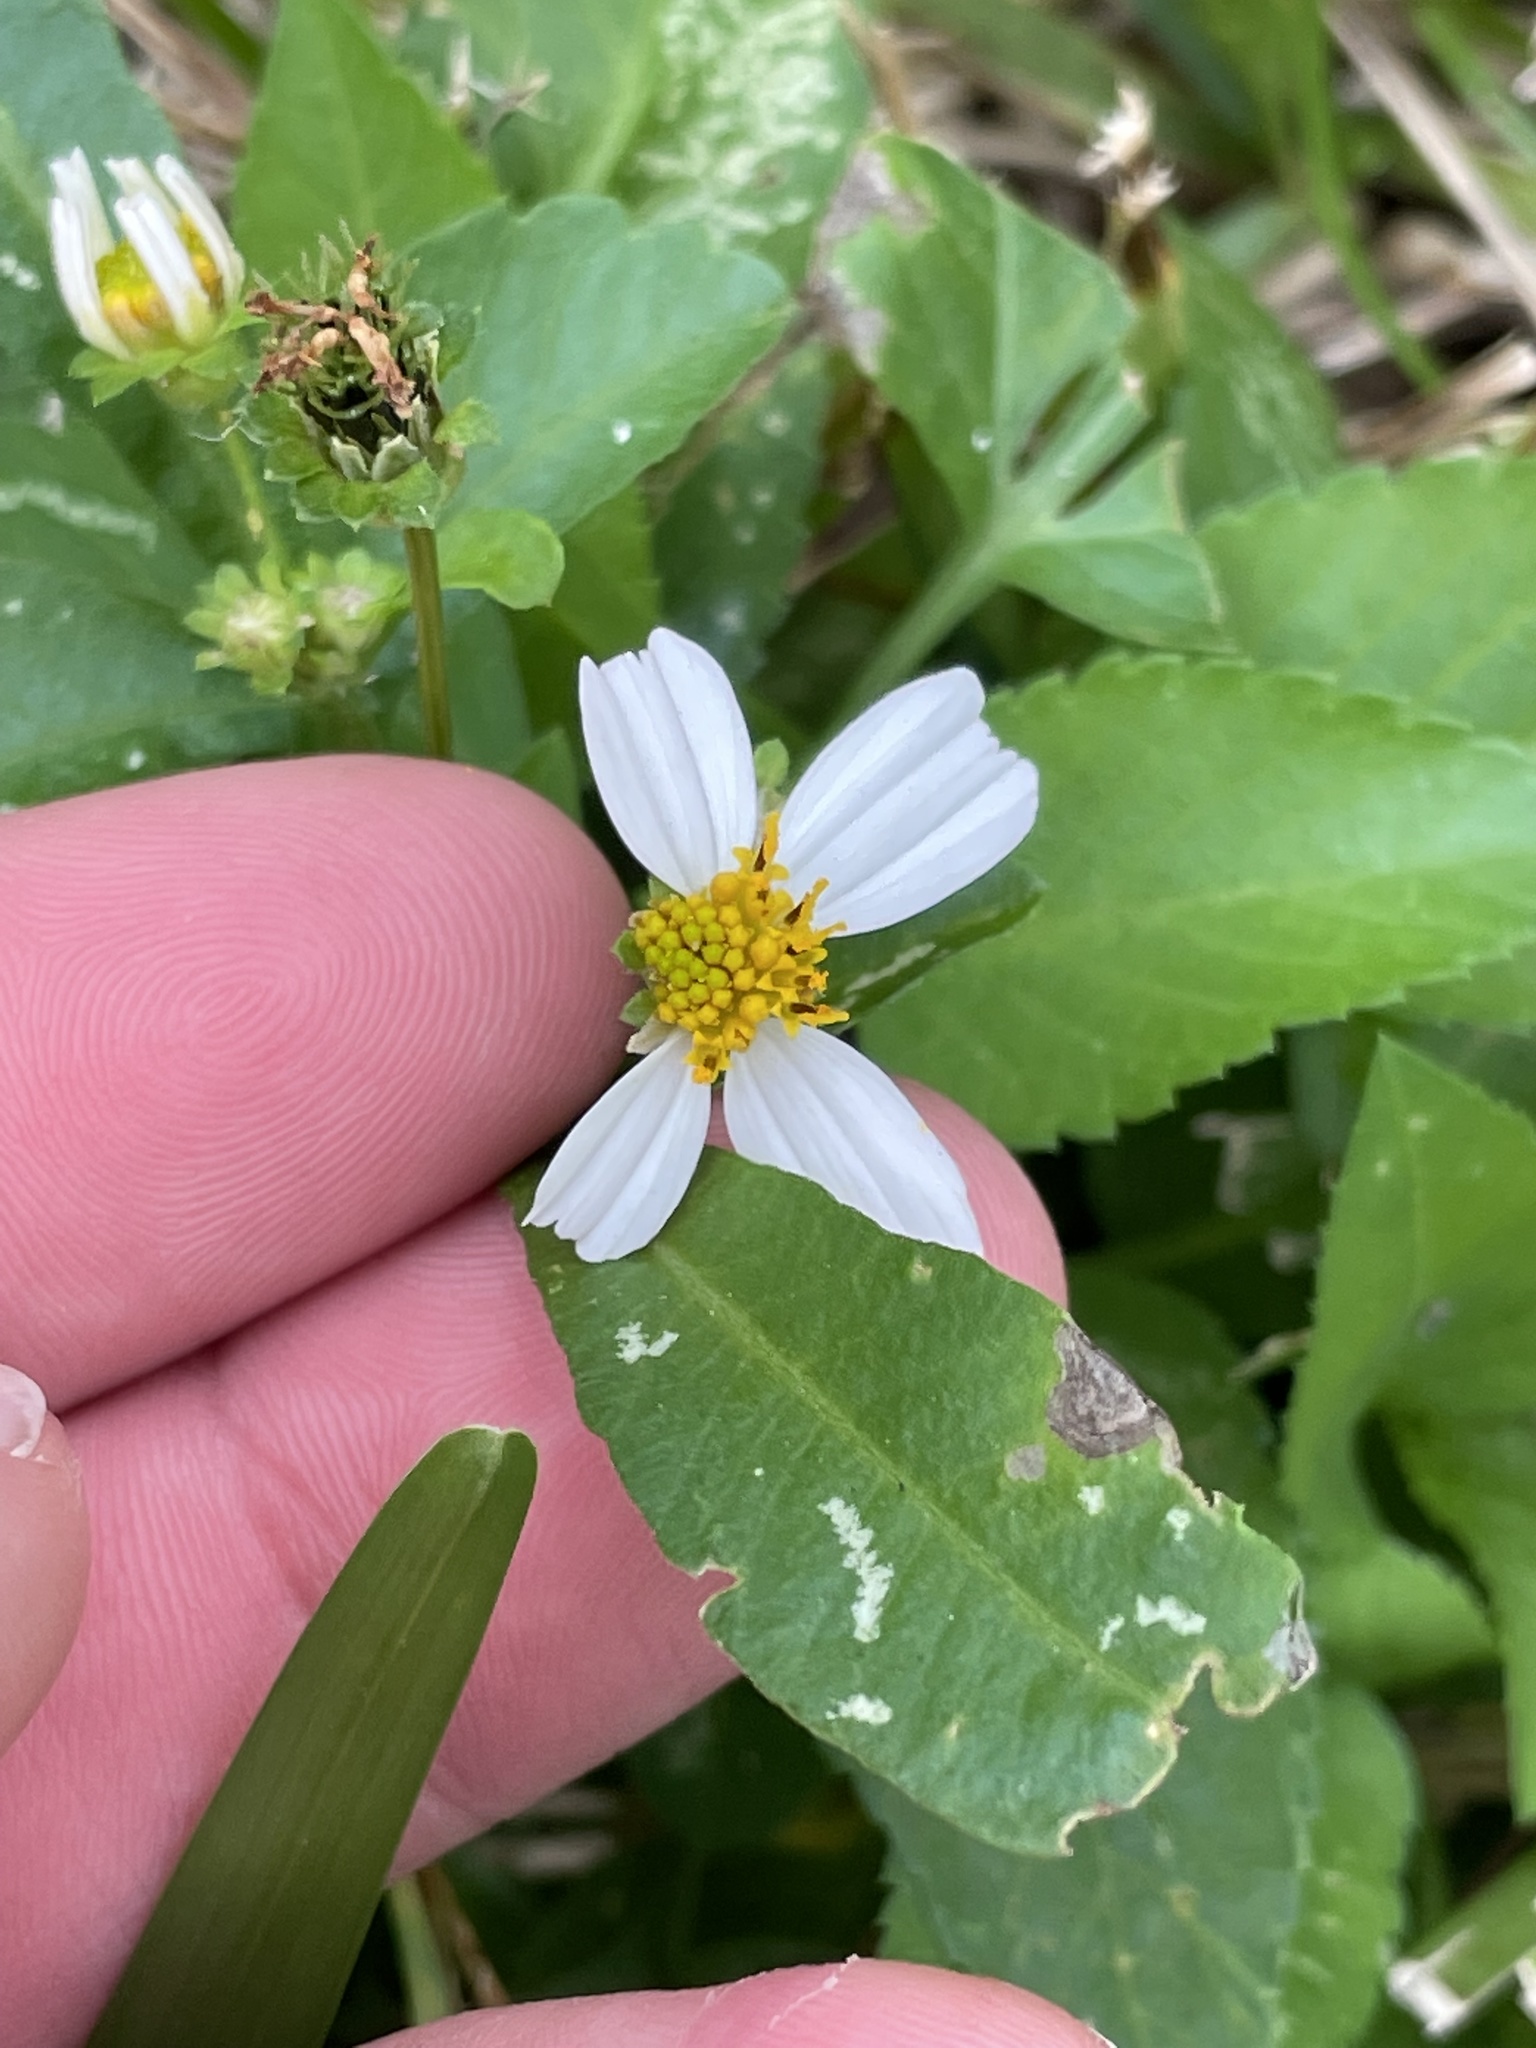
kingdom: Plantae
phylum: Tracheophyta
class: Magnoliopsida
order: Asterales
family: Asteraceae
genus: Bidens
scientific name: Bidens alba
